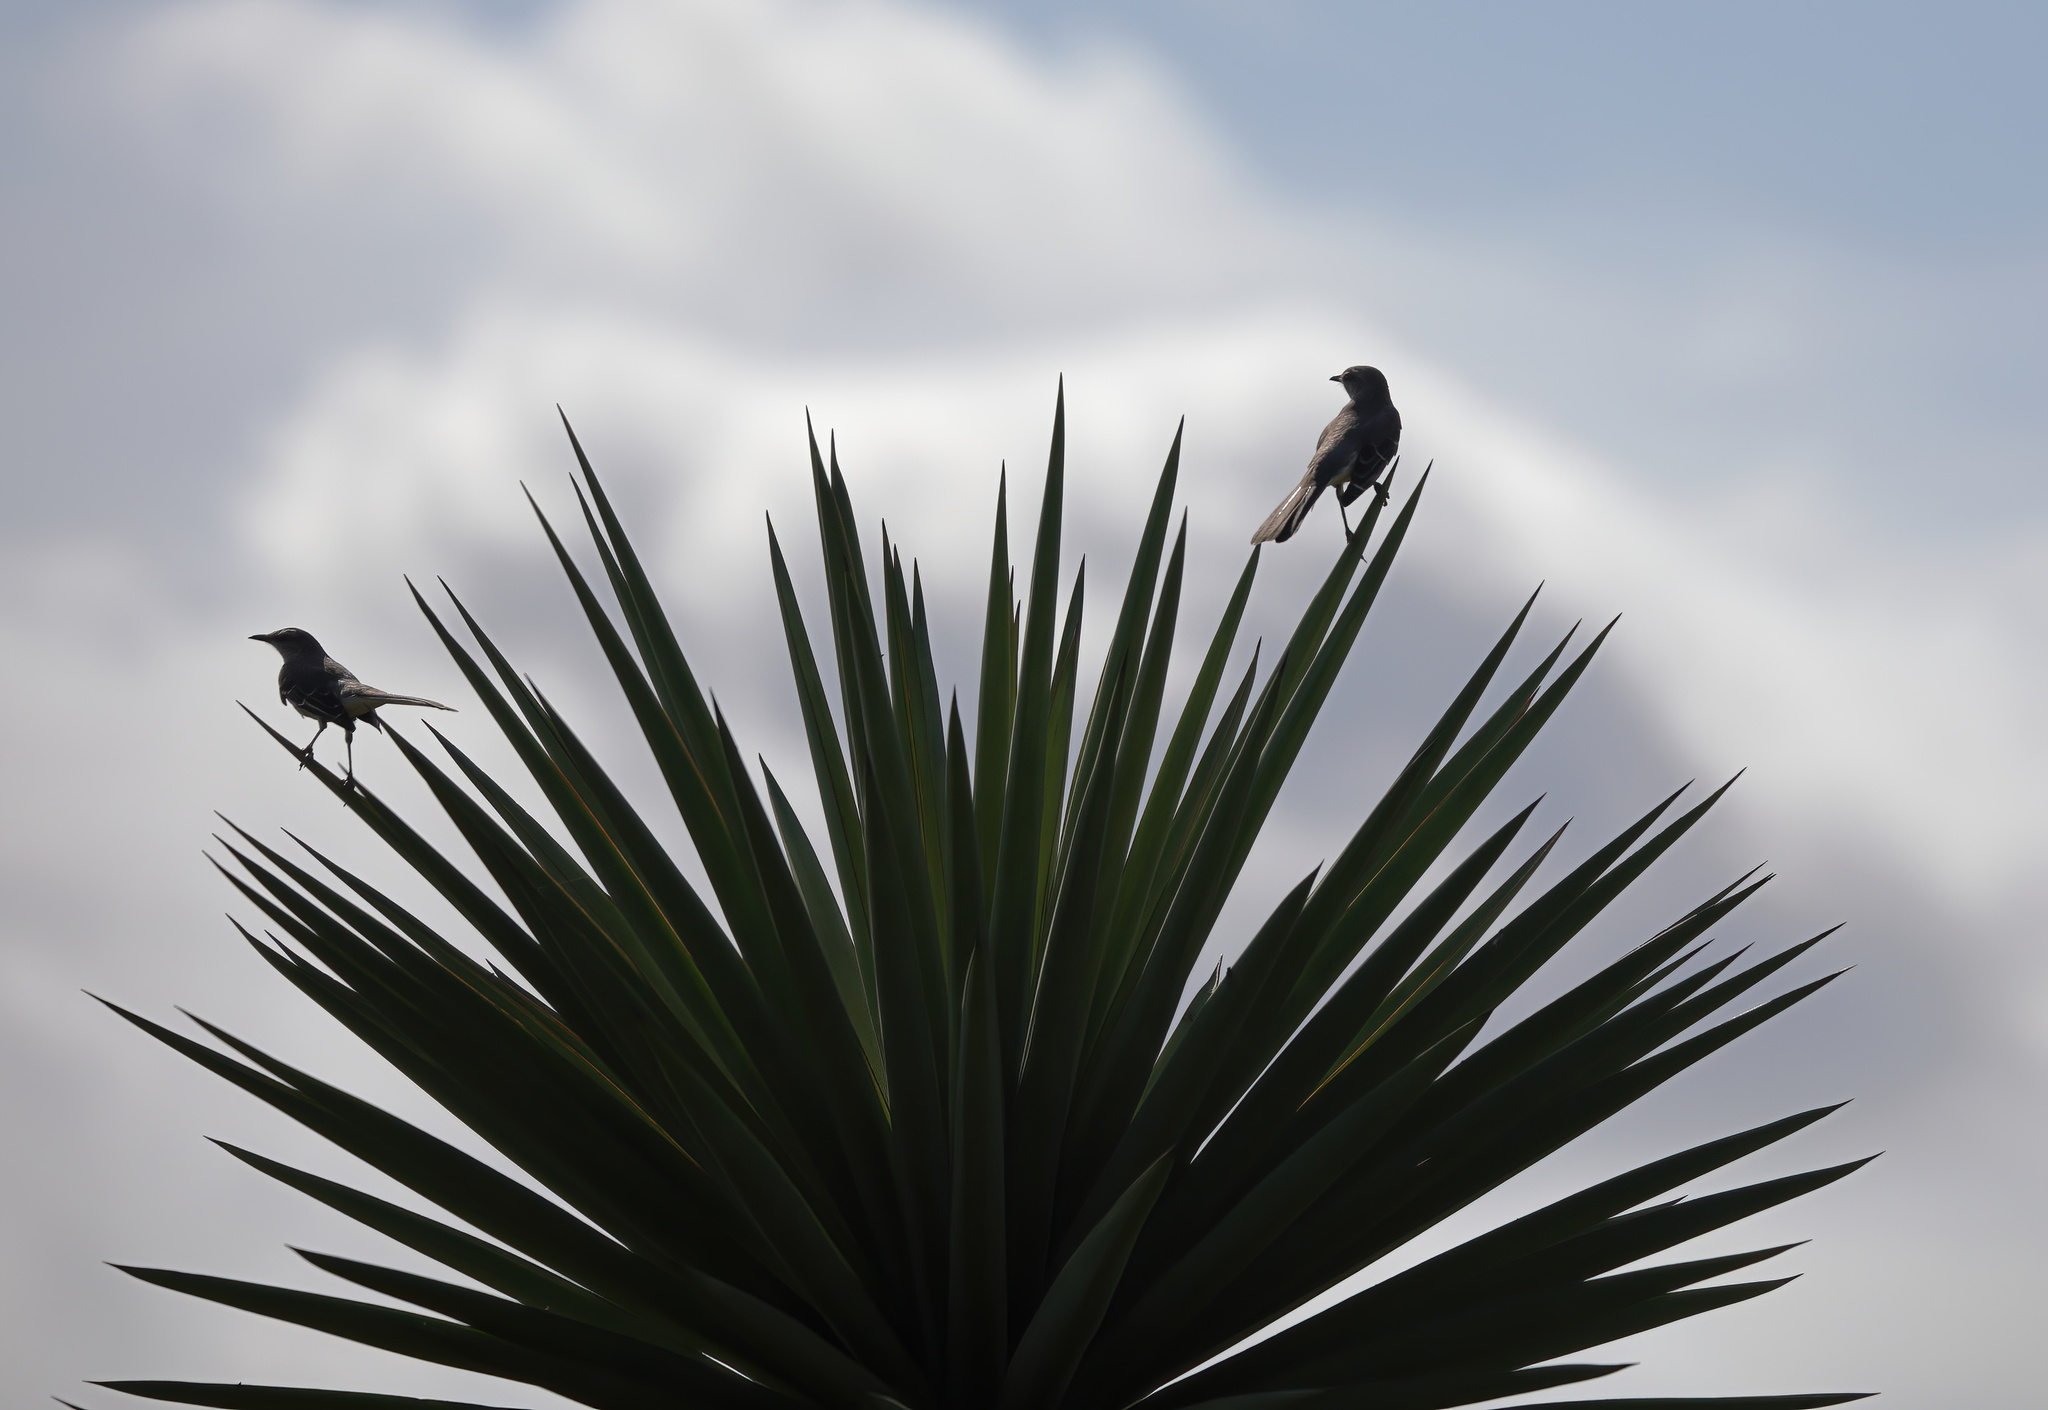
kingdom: Animalia
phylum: Chordata
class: Aves
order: Passeriformes
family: Mimidae
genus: Mimus
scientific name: Mimus polyglottos
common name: Northern mockingbird
